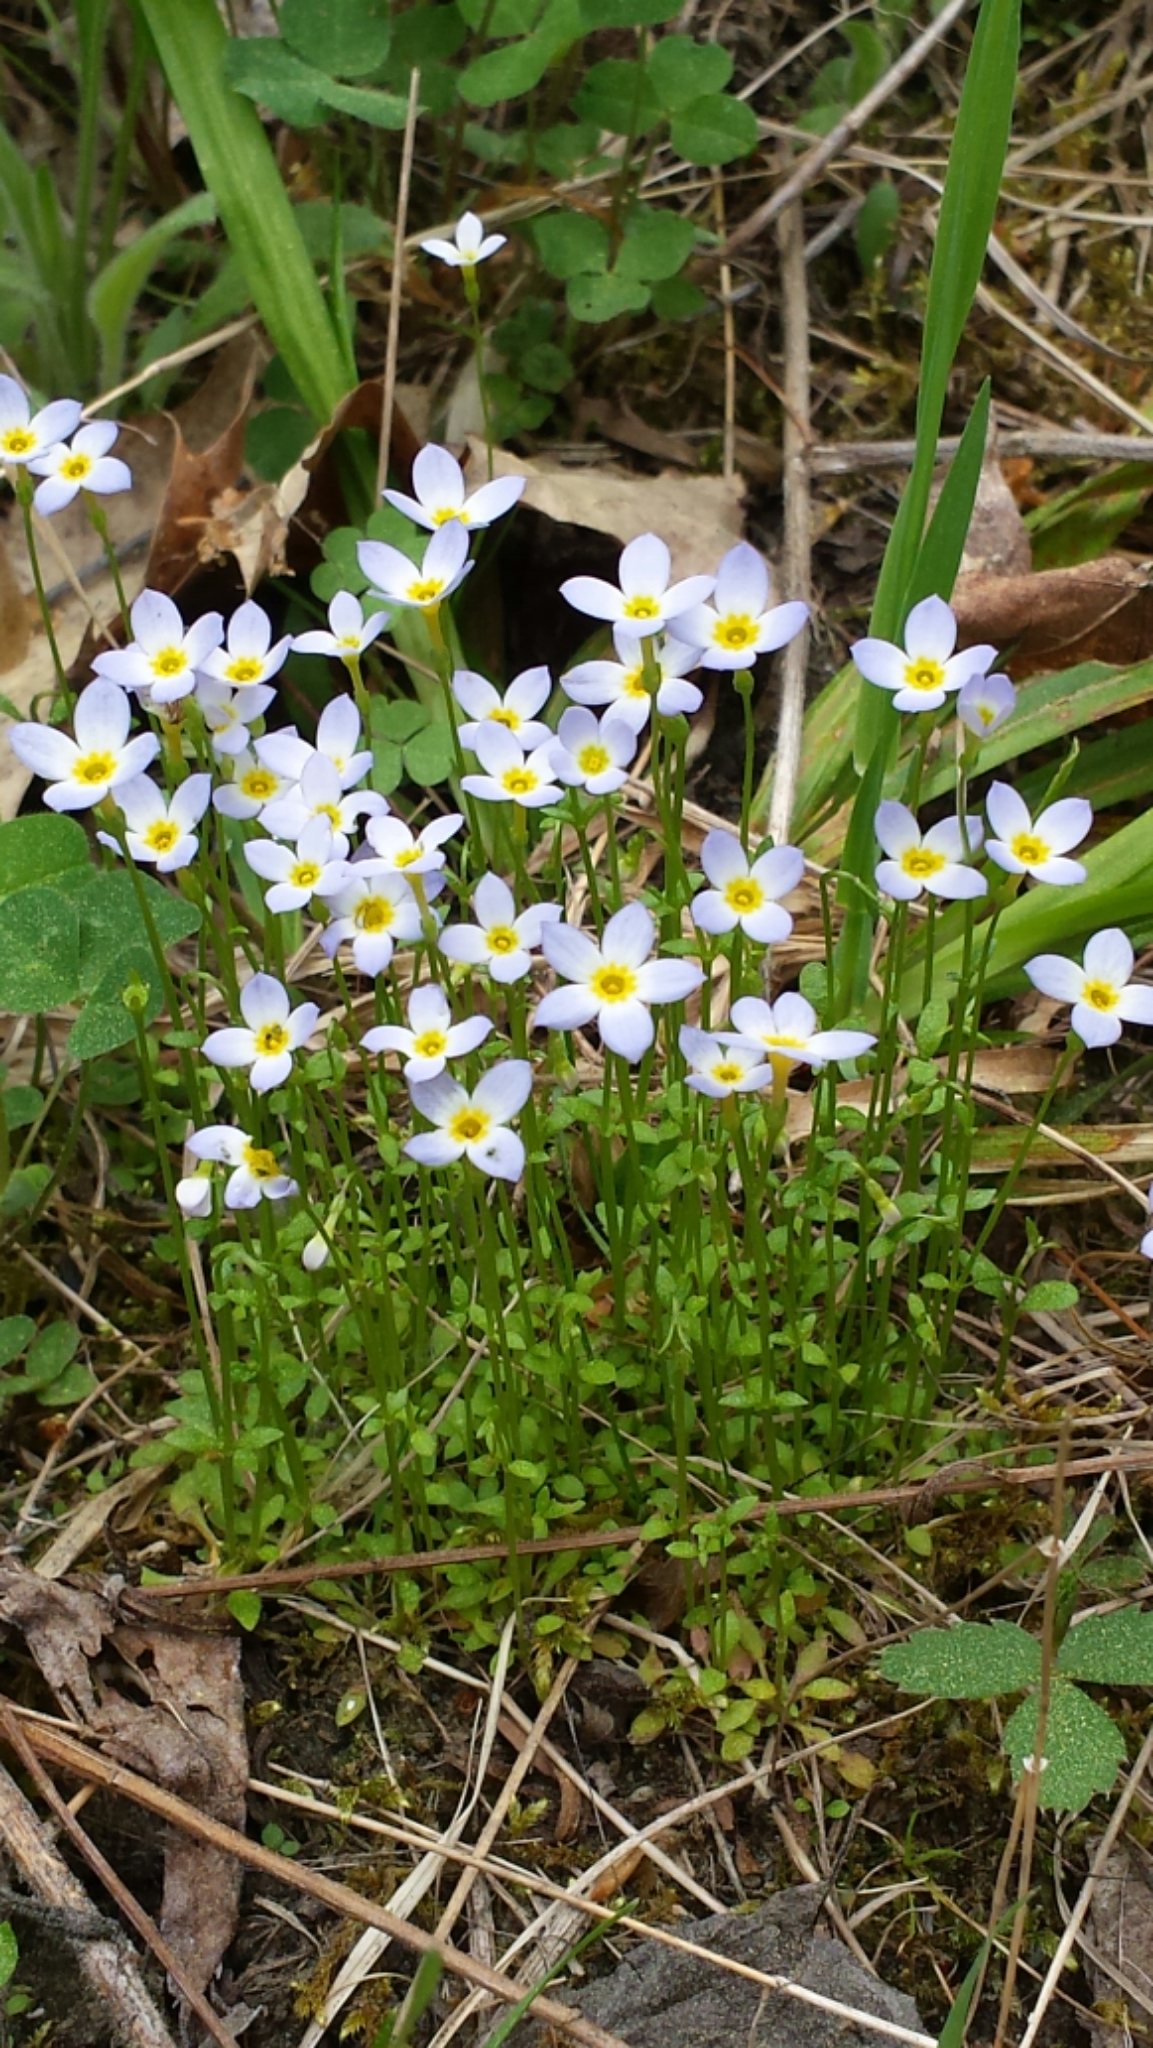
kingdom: Plantae
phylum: Tracheophyta
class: Magnoliopsida
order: Gentianales
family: Rubiaceae
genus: Houstonia
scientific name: Houstonia caerulea
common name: Bluets
